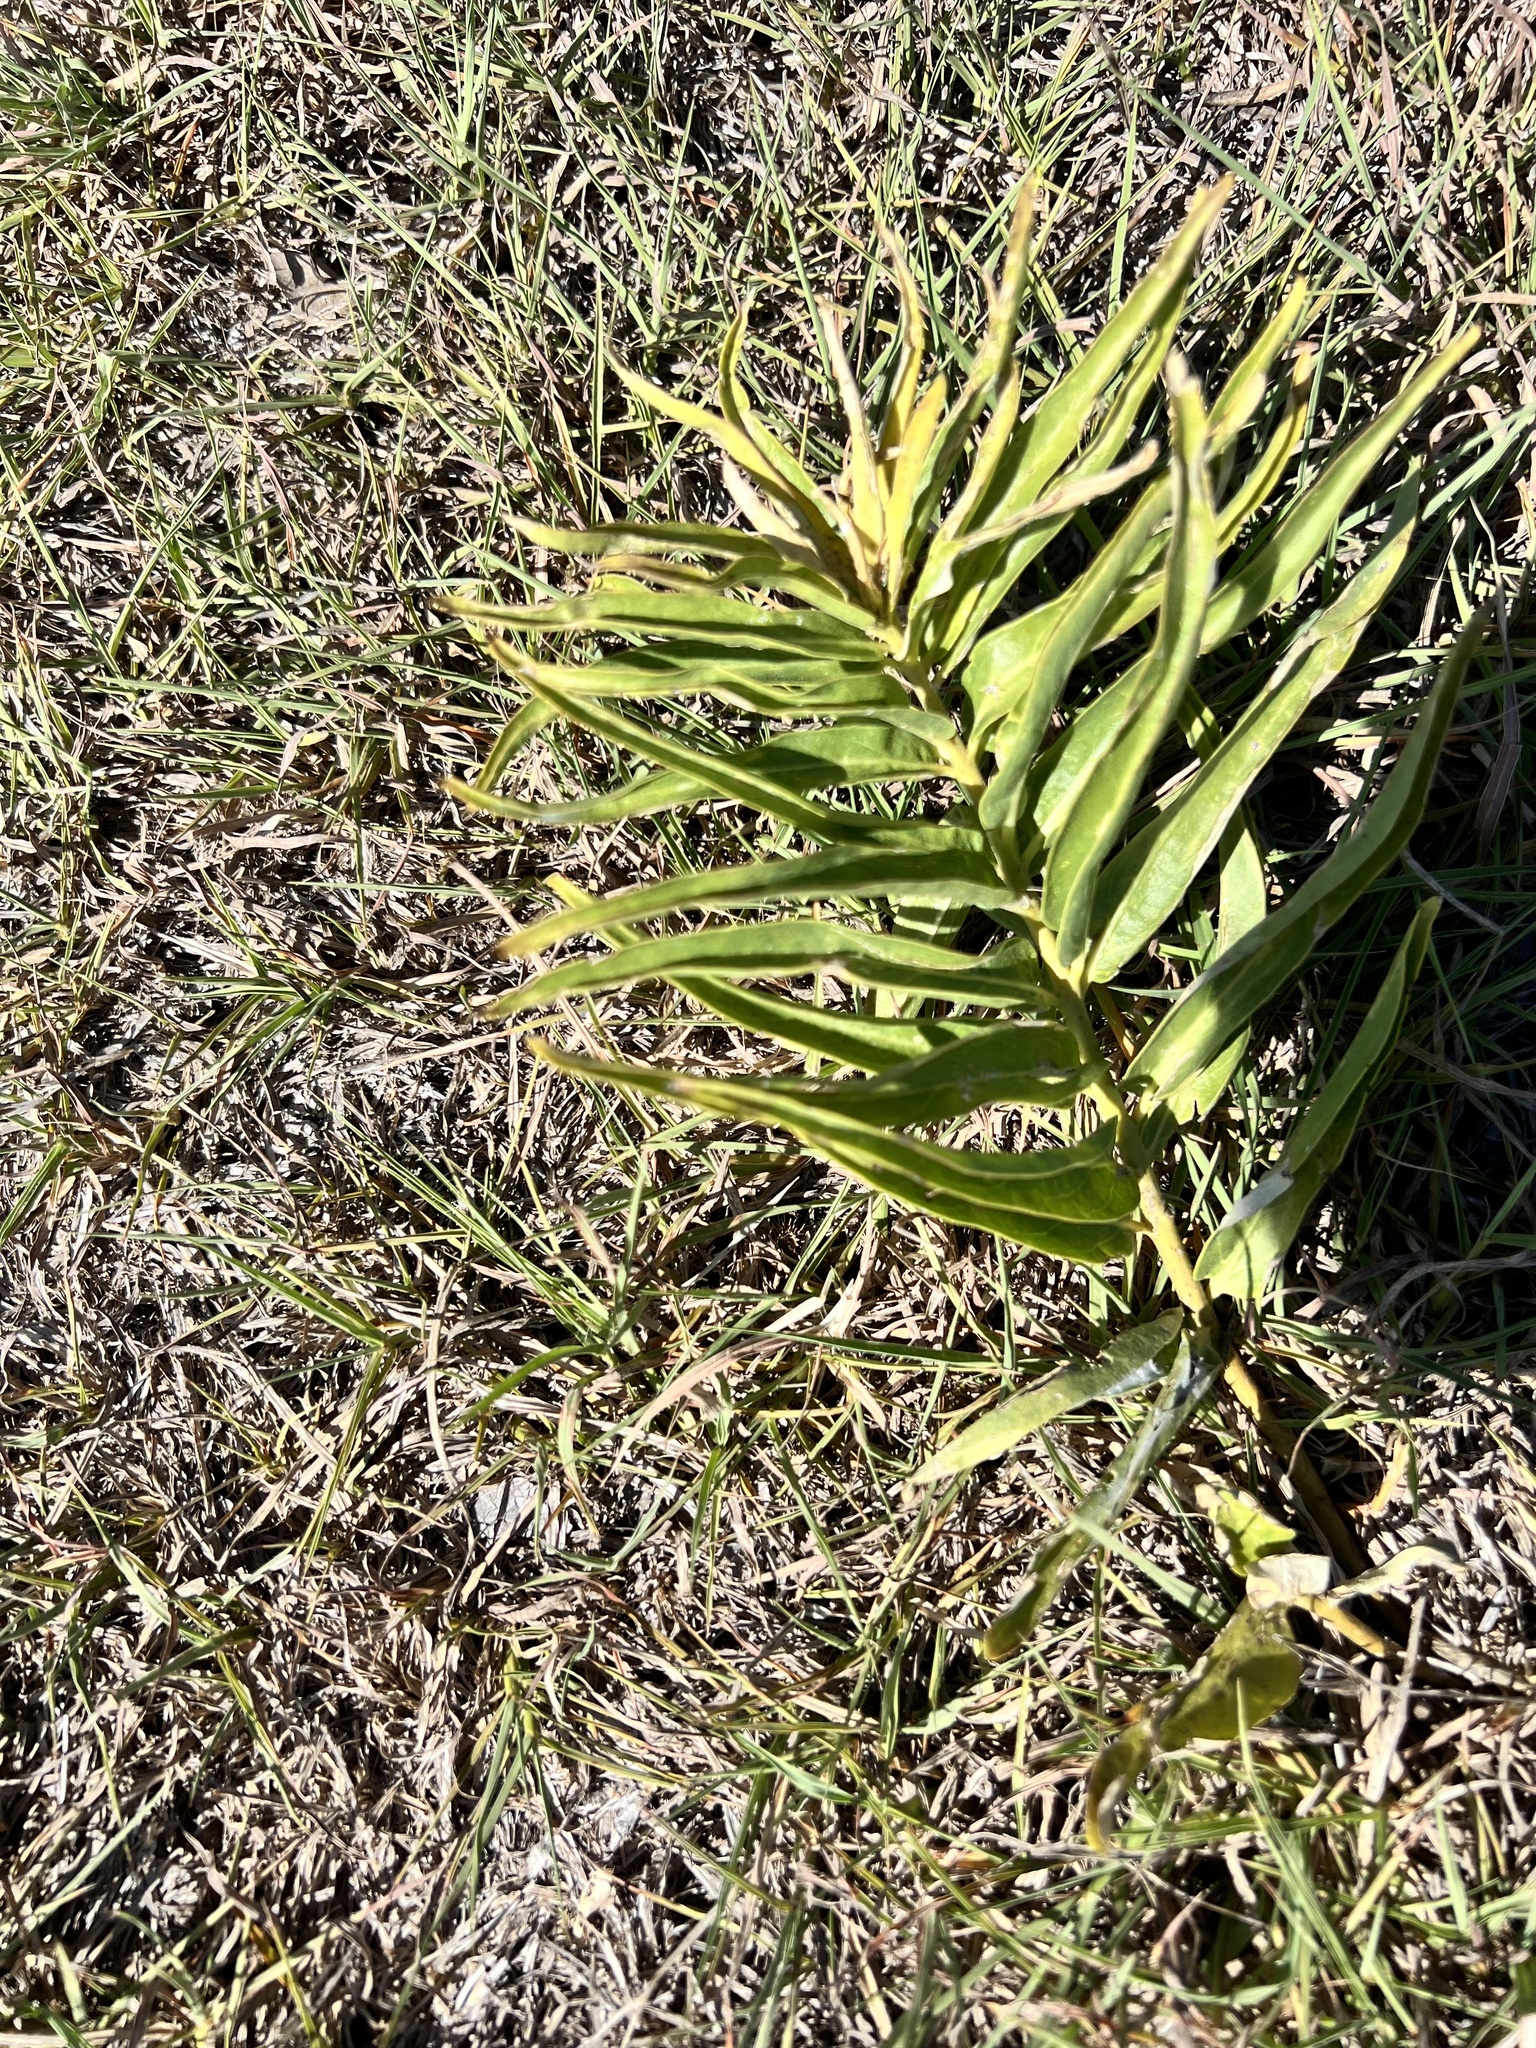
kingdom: Plantae
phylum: Tracheophyta
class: Magnoliopsida
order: Gentianales
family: Apocynaceae
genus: Asclepias
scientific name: Asclepias asperula
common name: Antelope horns
